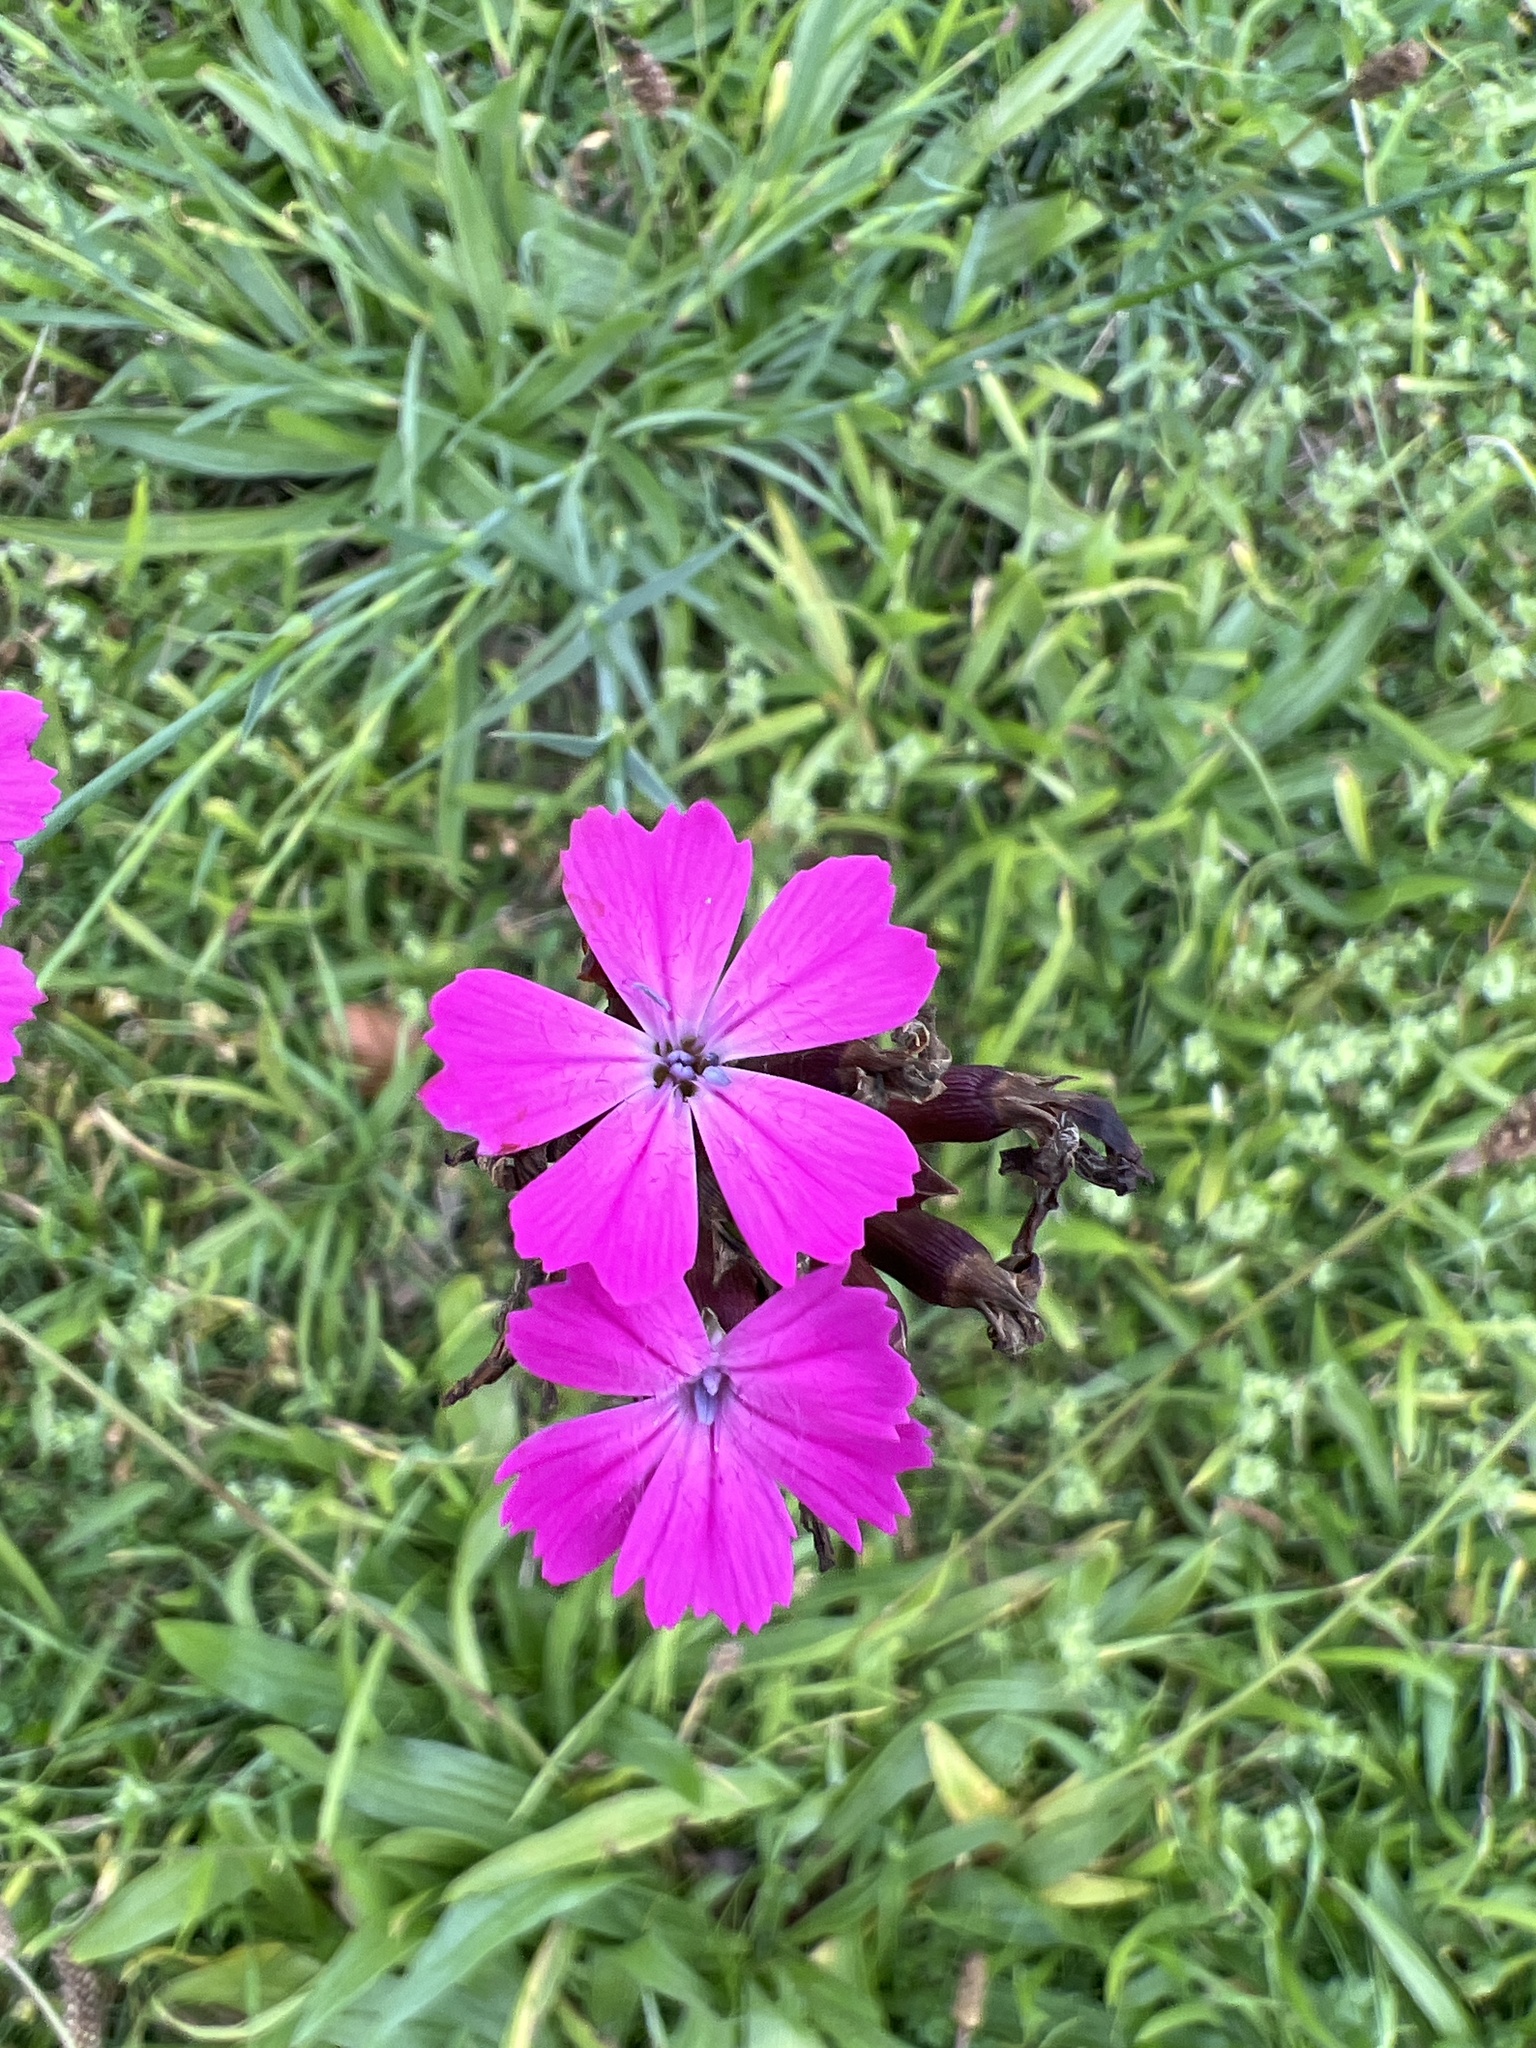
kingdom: Plantae
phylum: Tracheophyta
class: Magnoliopsida
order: Caryophyllales
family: Caryophyllaceae
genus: Dianthus
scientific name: Dianthus carthusianorum
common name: Carthusian pink
